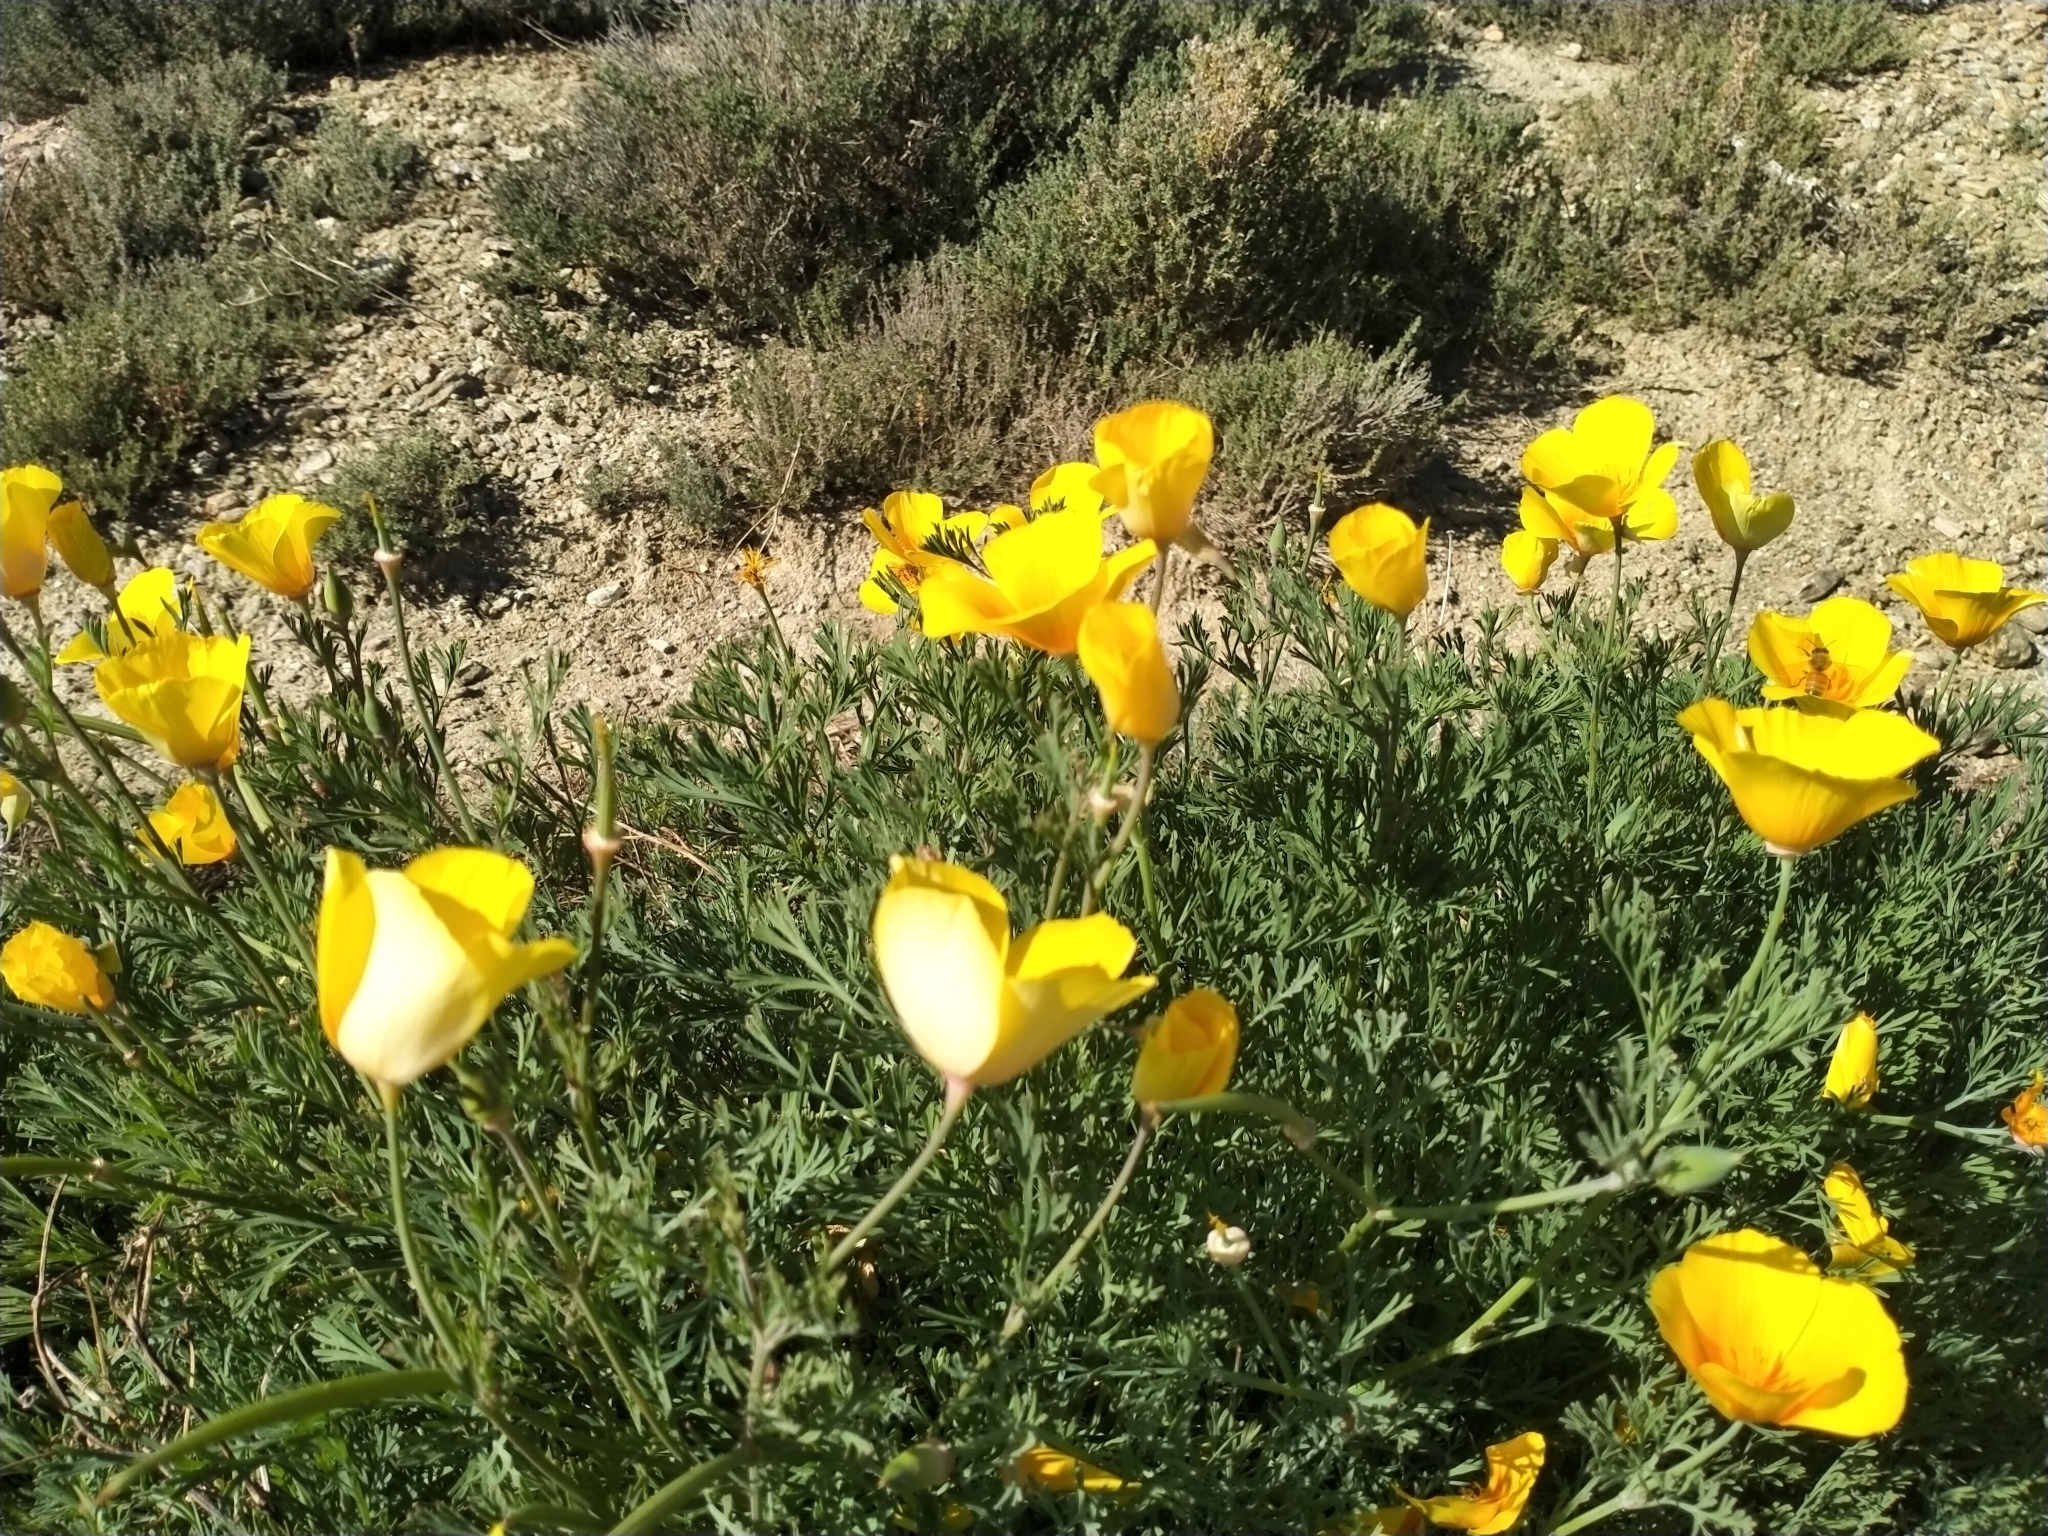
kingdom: Plantae
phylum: Tracheophyta
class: Magnoliopsida
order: Ranunculales
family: Papaveraceae
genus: Eschscholzia
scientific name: Eschscholzia californica
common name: California poppy
